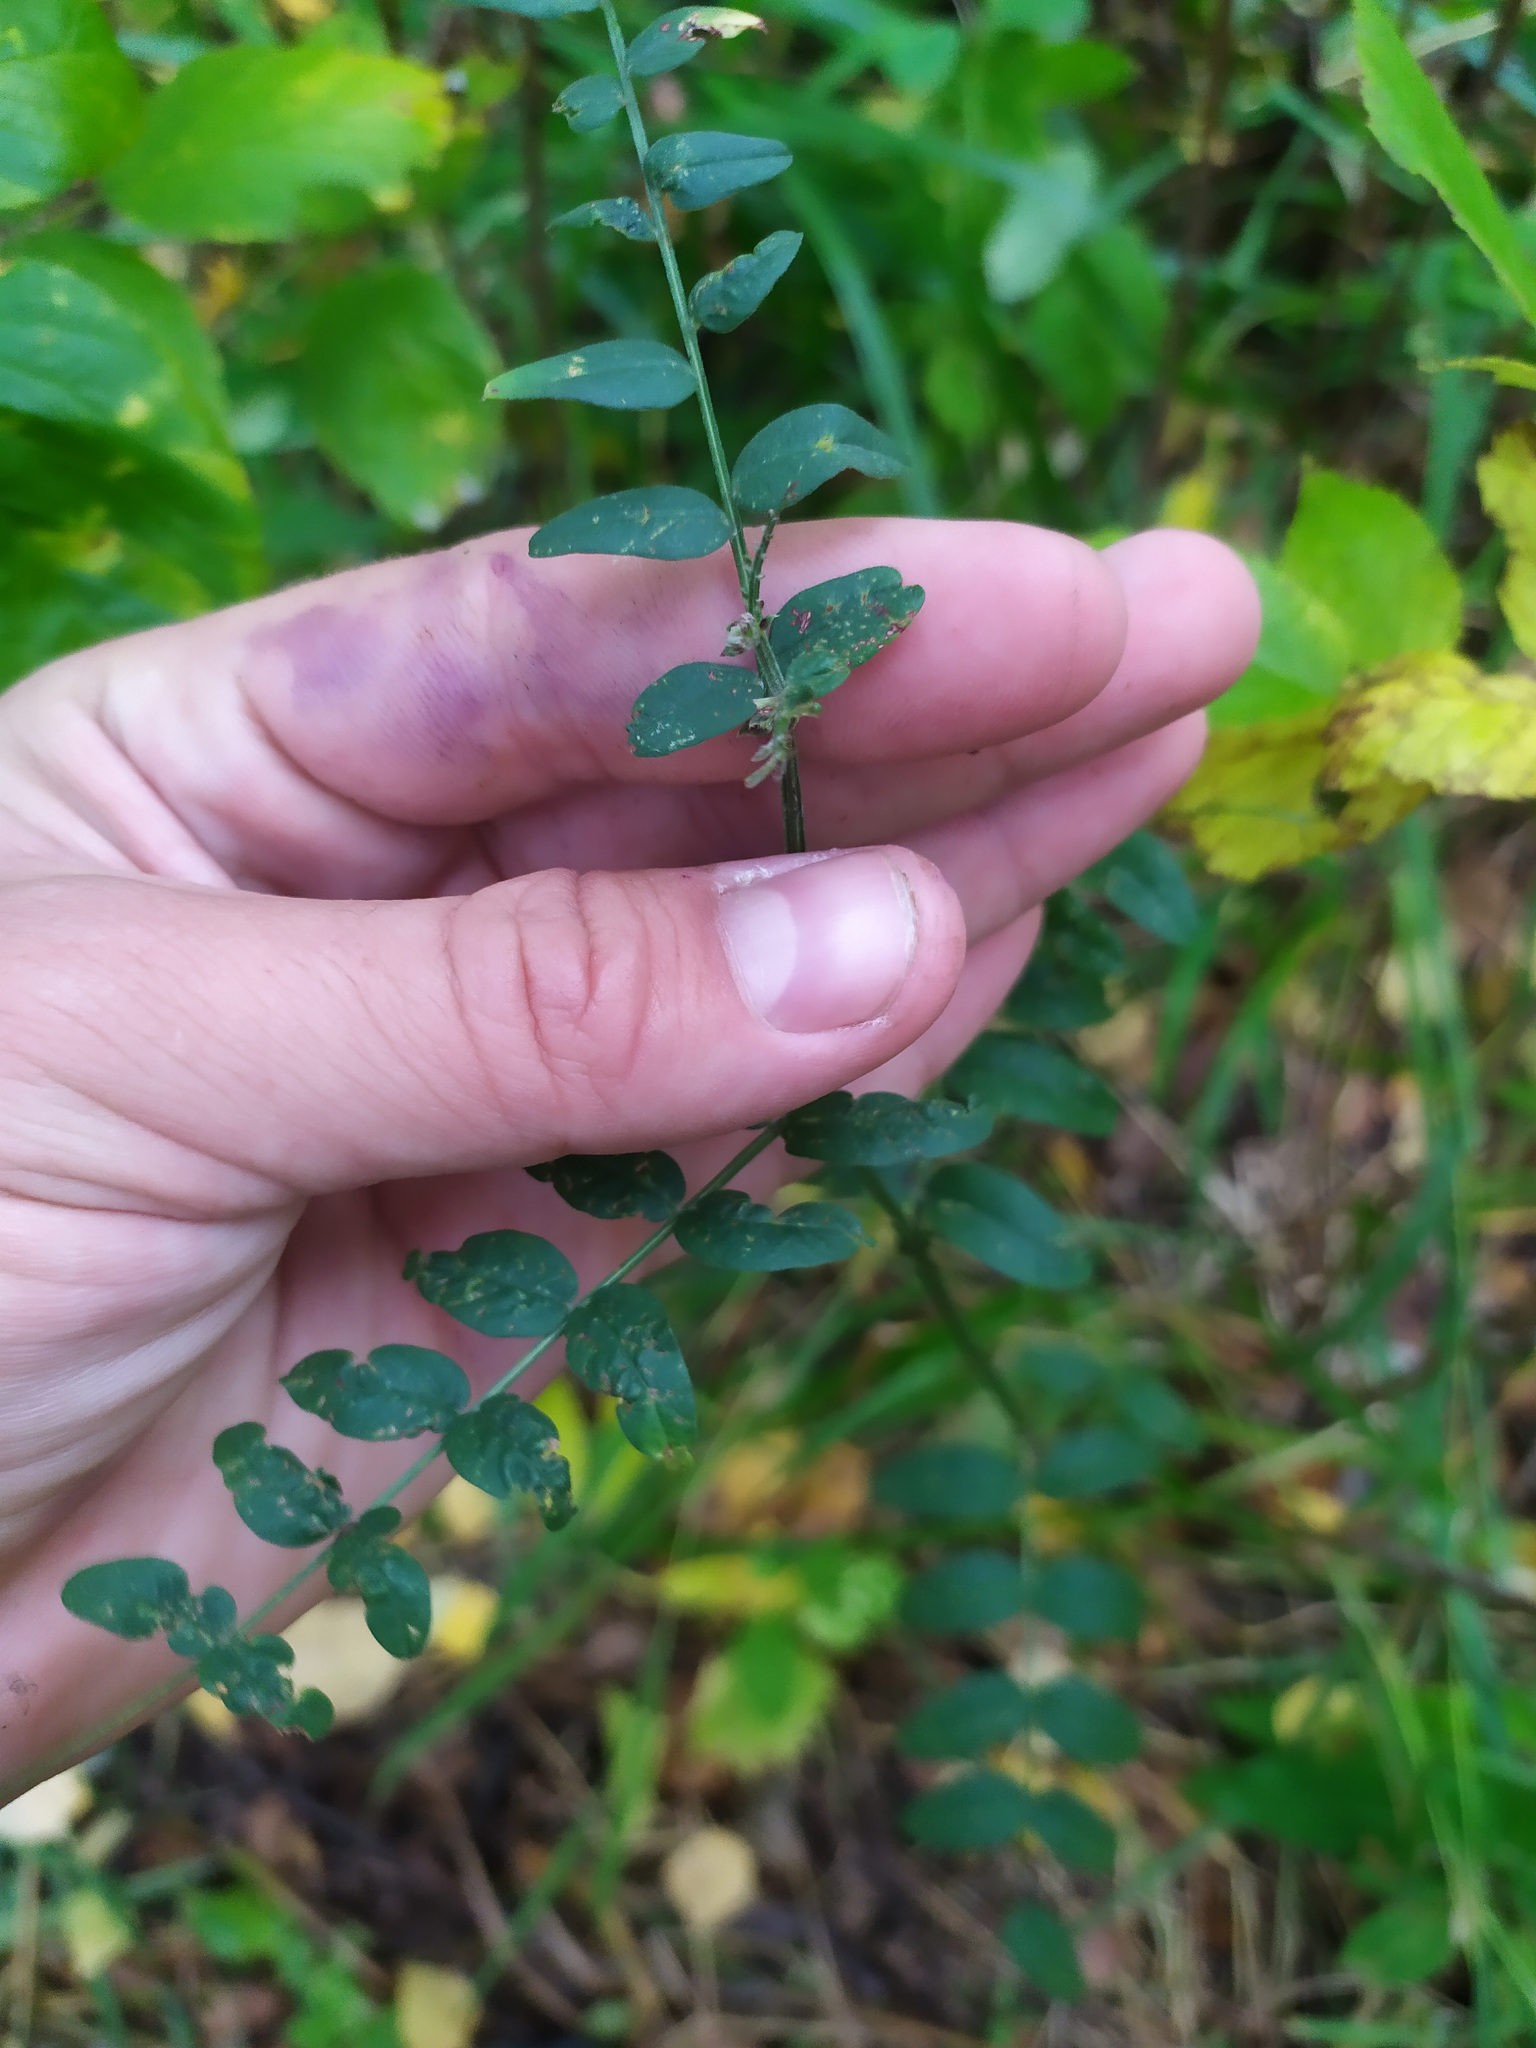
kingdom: Plantae
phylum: Tracheophyta
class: Magnoliopsida
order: Fabales
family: Fabaceae
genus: Vicia
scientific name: Vicia sepium
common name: Bush vetch
